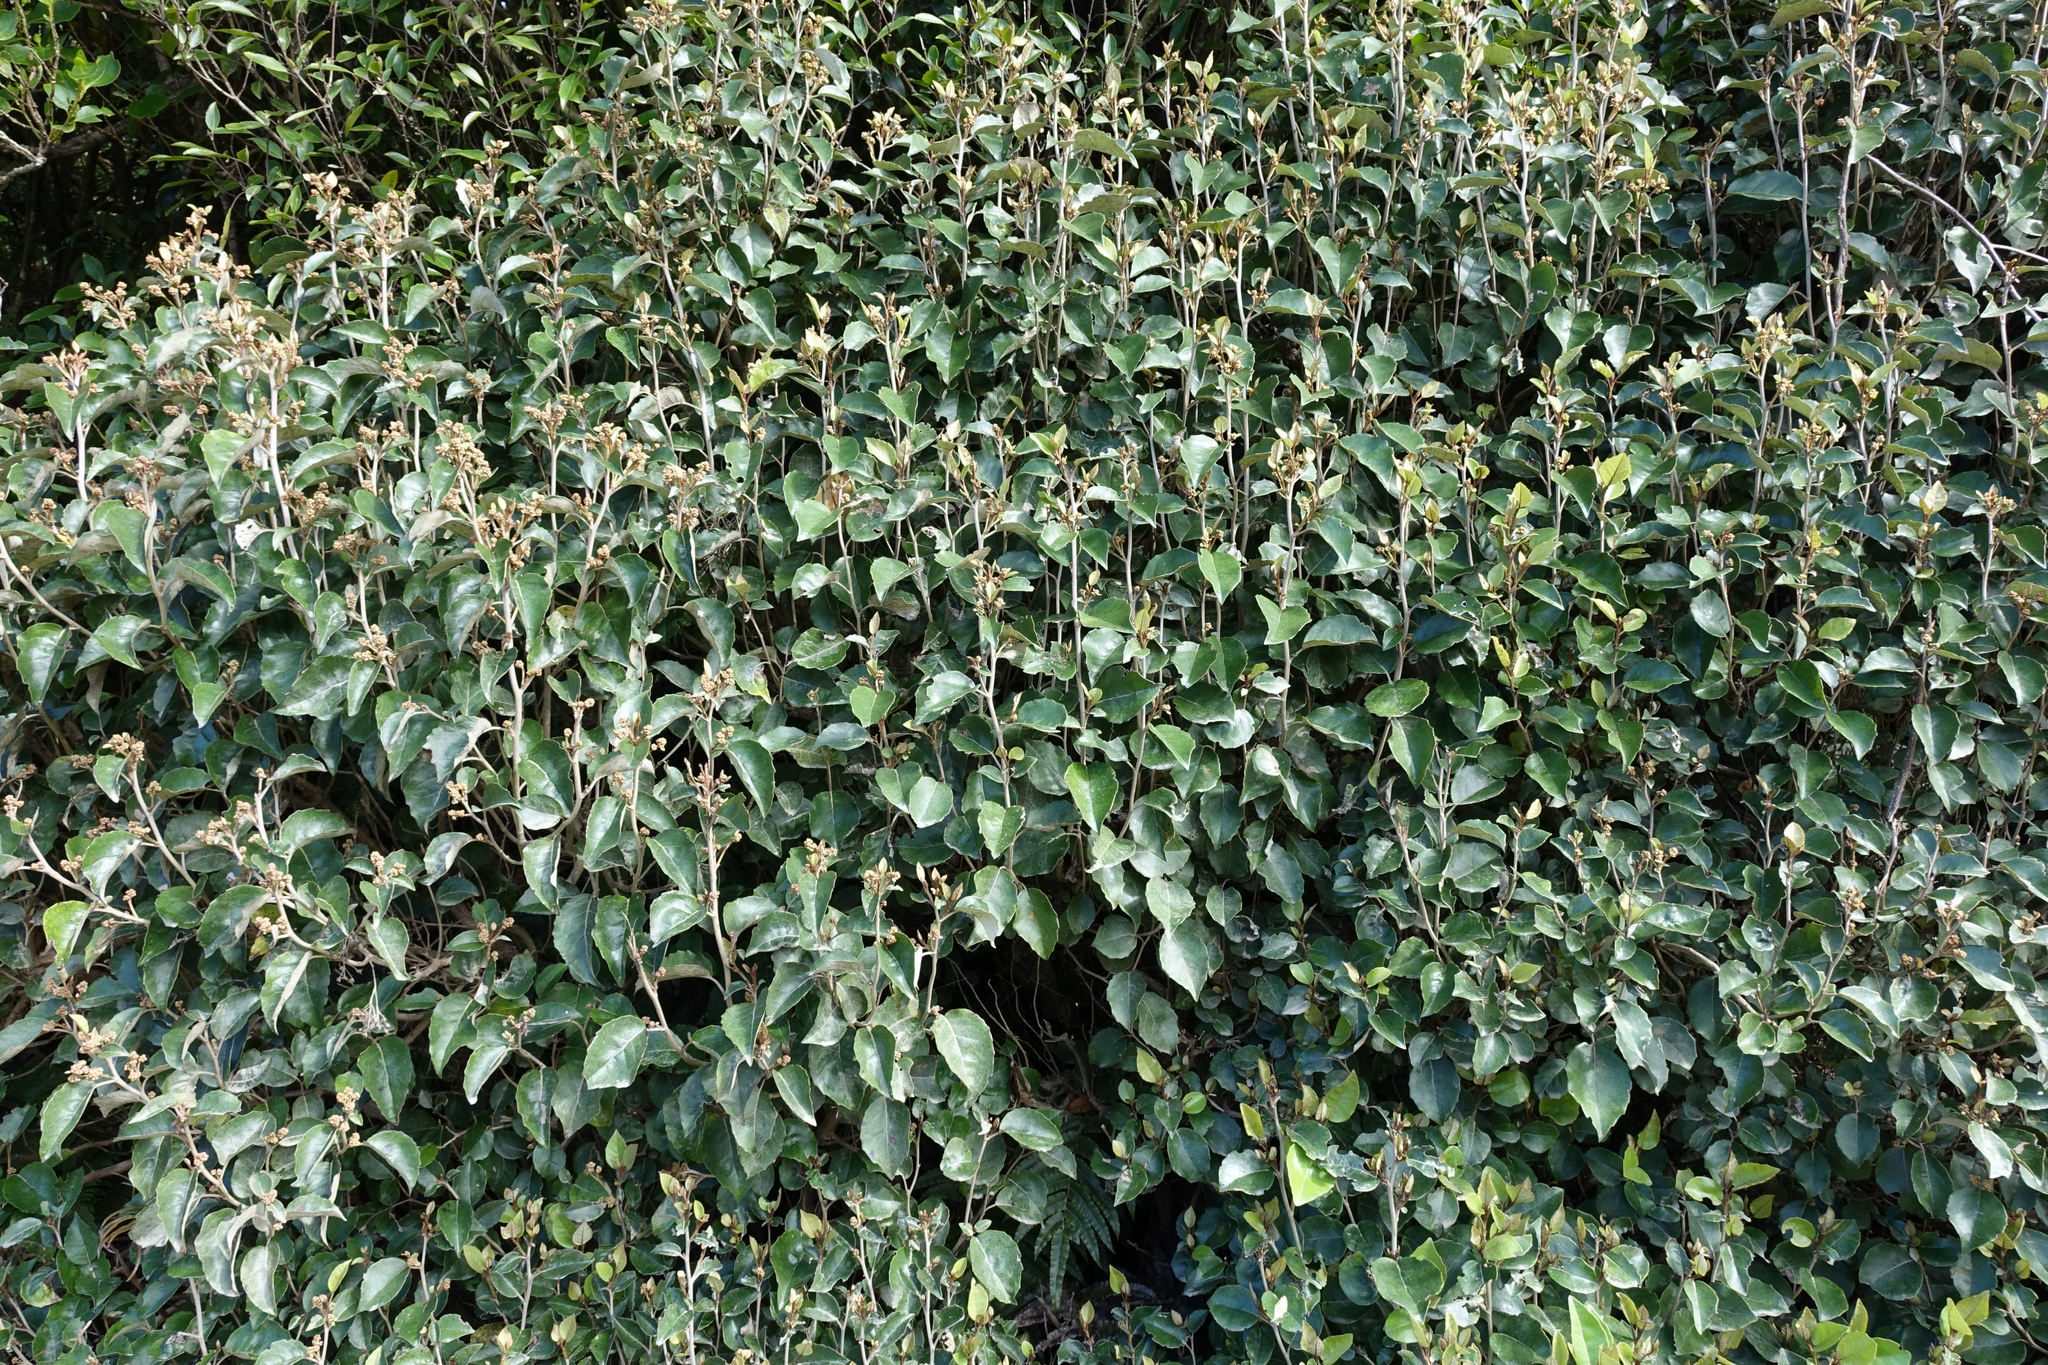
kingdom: Plantae
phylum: Tracheophyta
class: Magnoliopsida
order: Asterales
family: Asteraceae
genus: Olearia
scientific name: Olearia arborescens
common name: Glossy tree daisy
